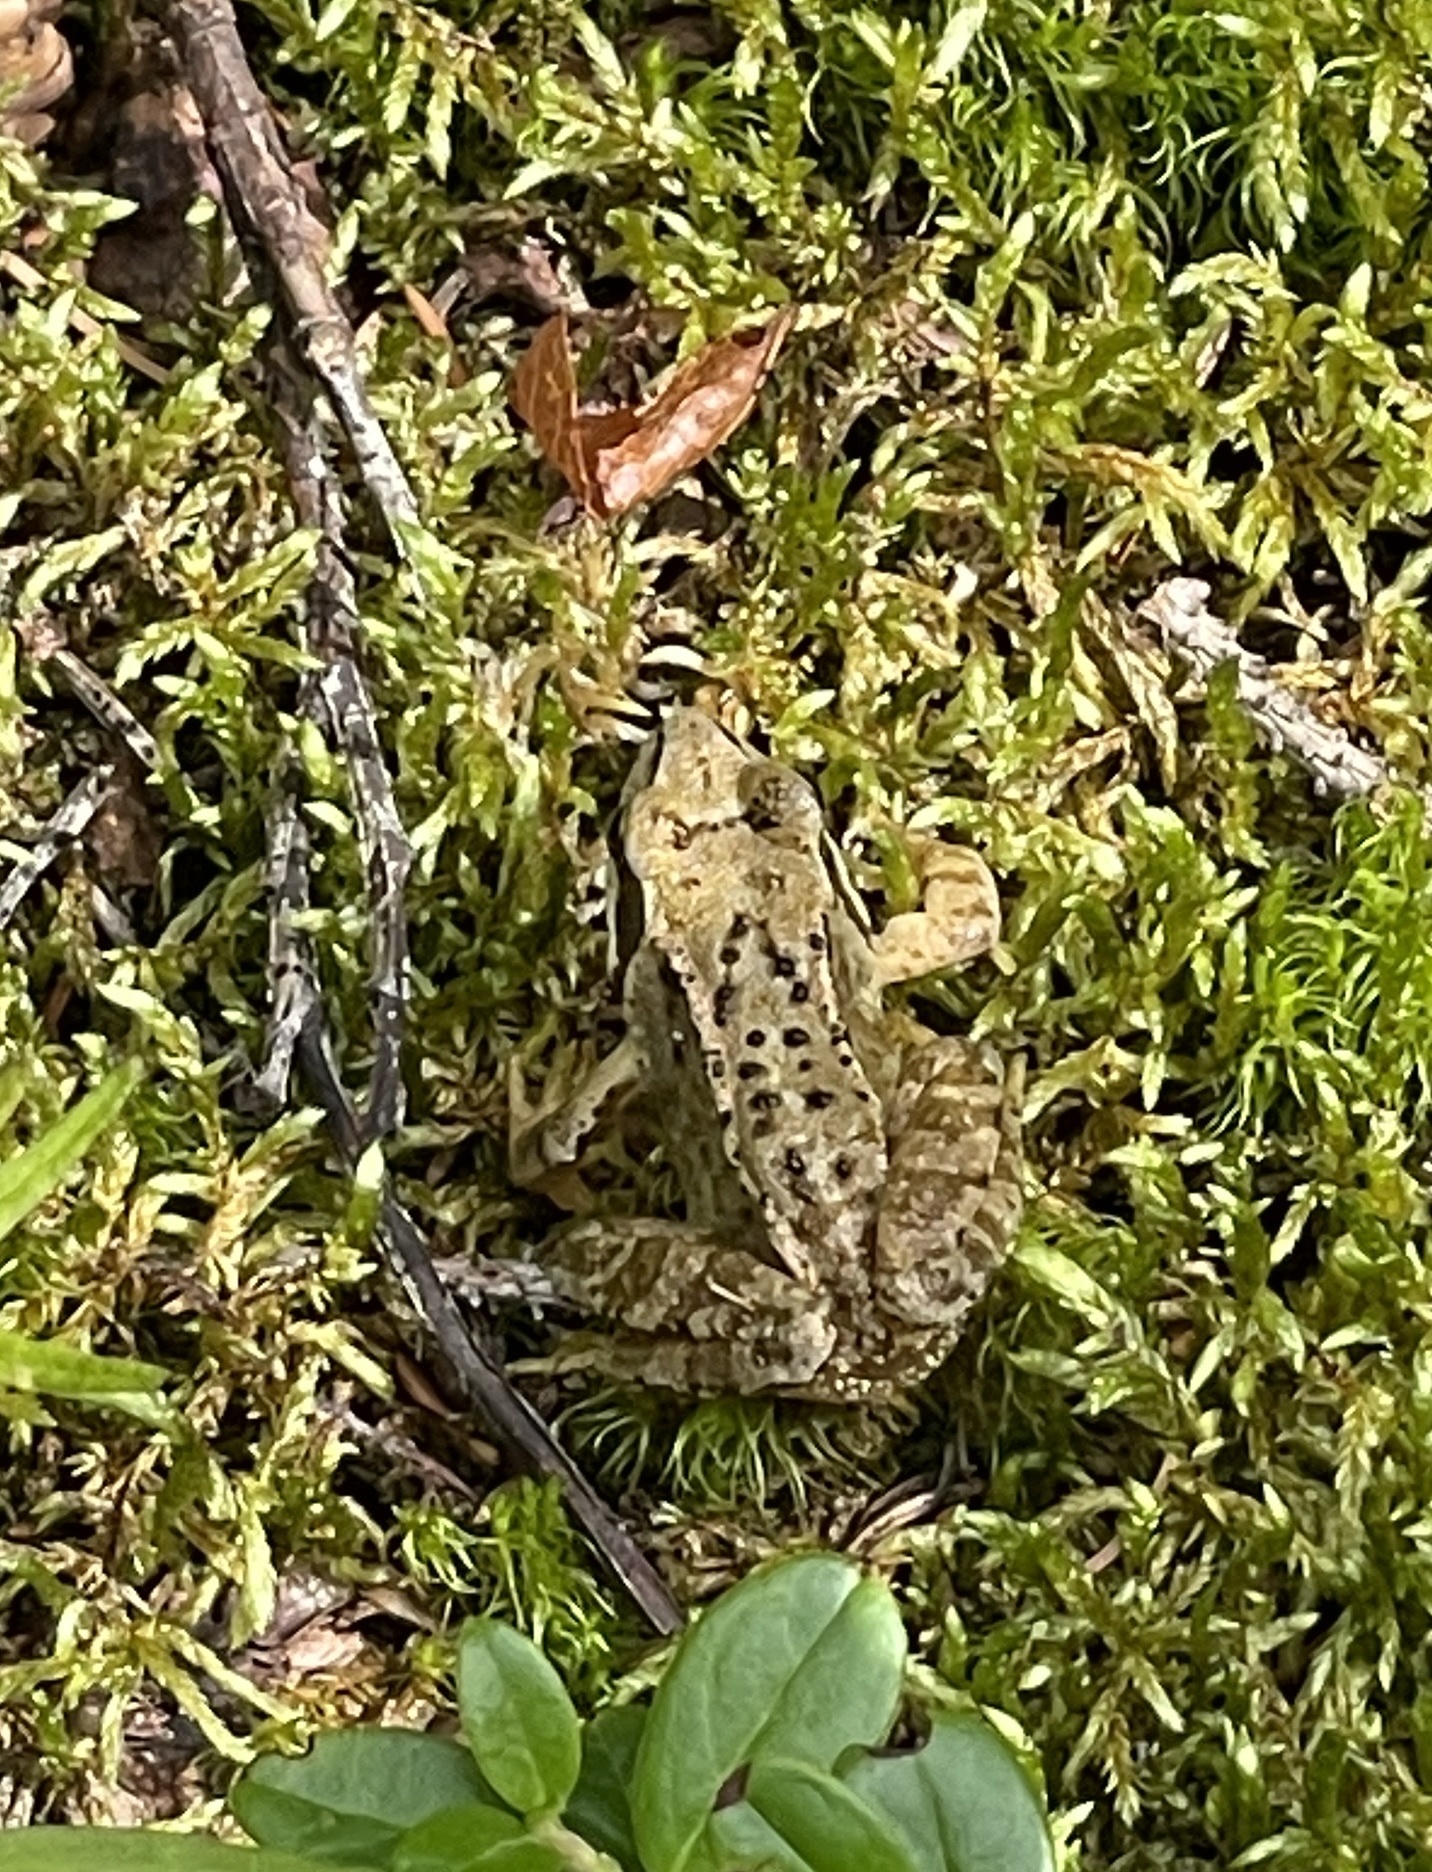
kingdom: Animalia
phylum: Chordata
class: Amphibia
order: Anura
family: Ranidae
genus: Rana
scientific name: Rana temporaria
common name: Common frog
